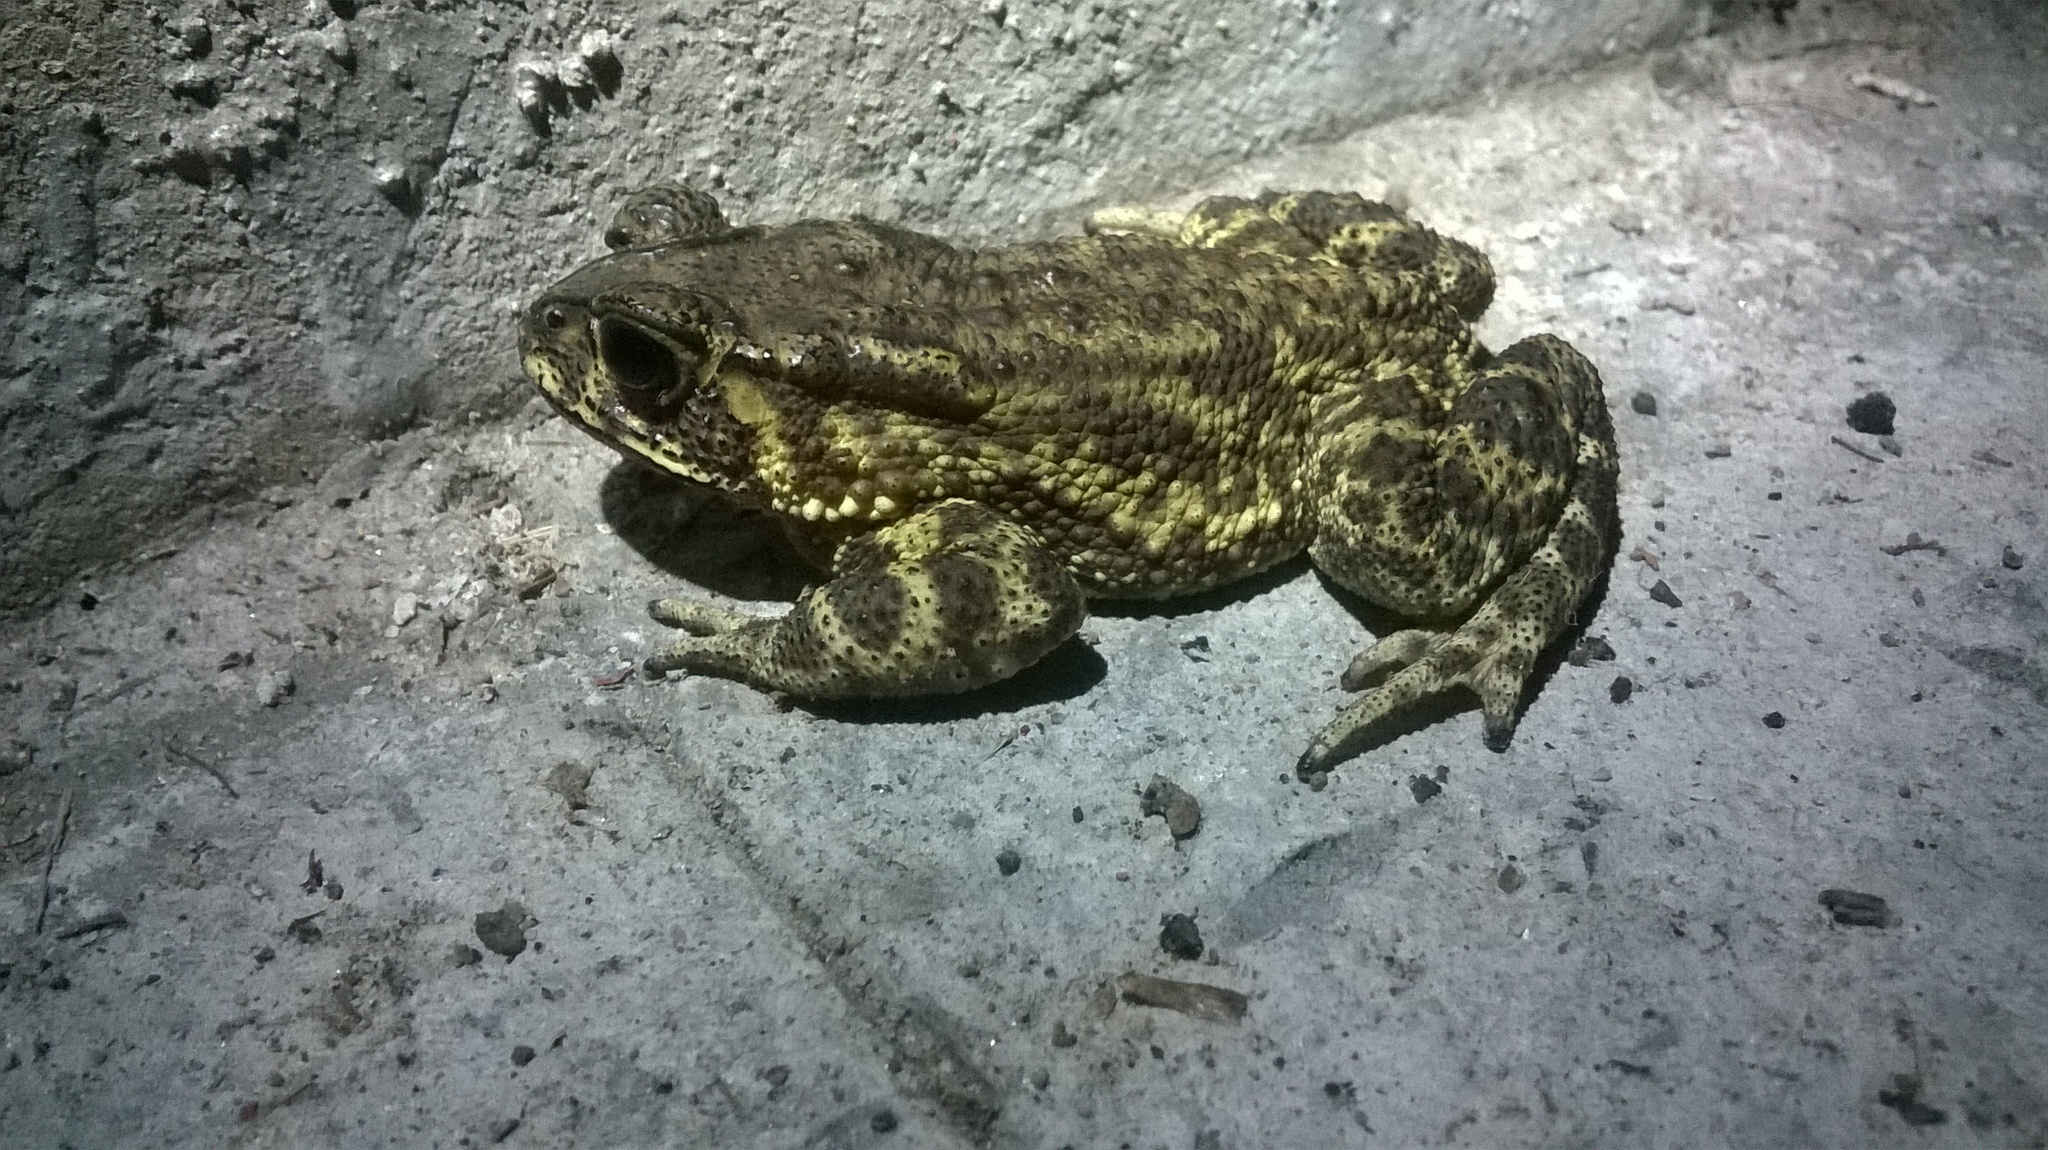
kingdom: Animalia
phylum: Chordata
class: Amphibia
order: Anura
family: Bufonidae
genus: Duttaphrynus
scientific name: Duttaphrynus melanostictus
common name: Common sunda toad
